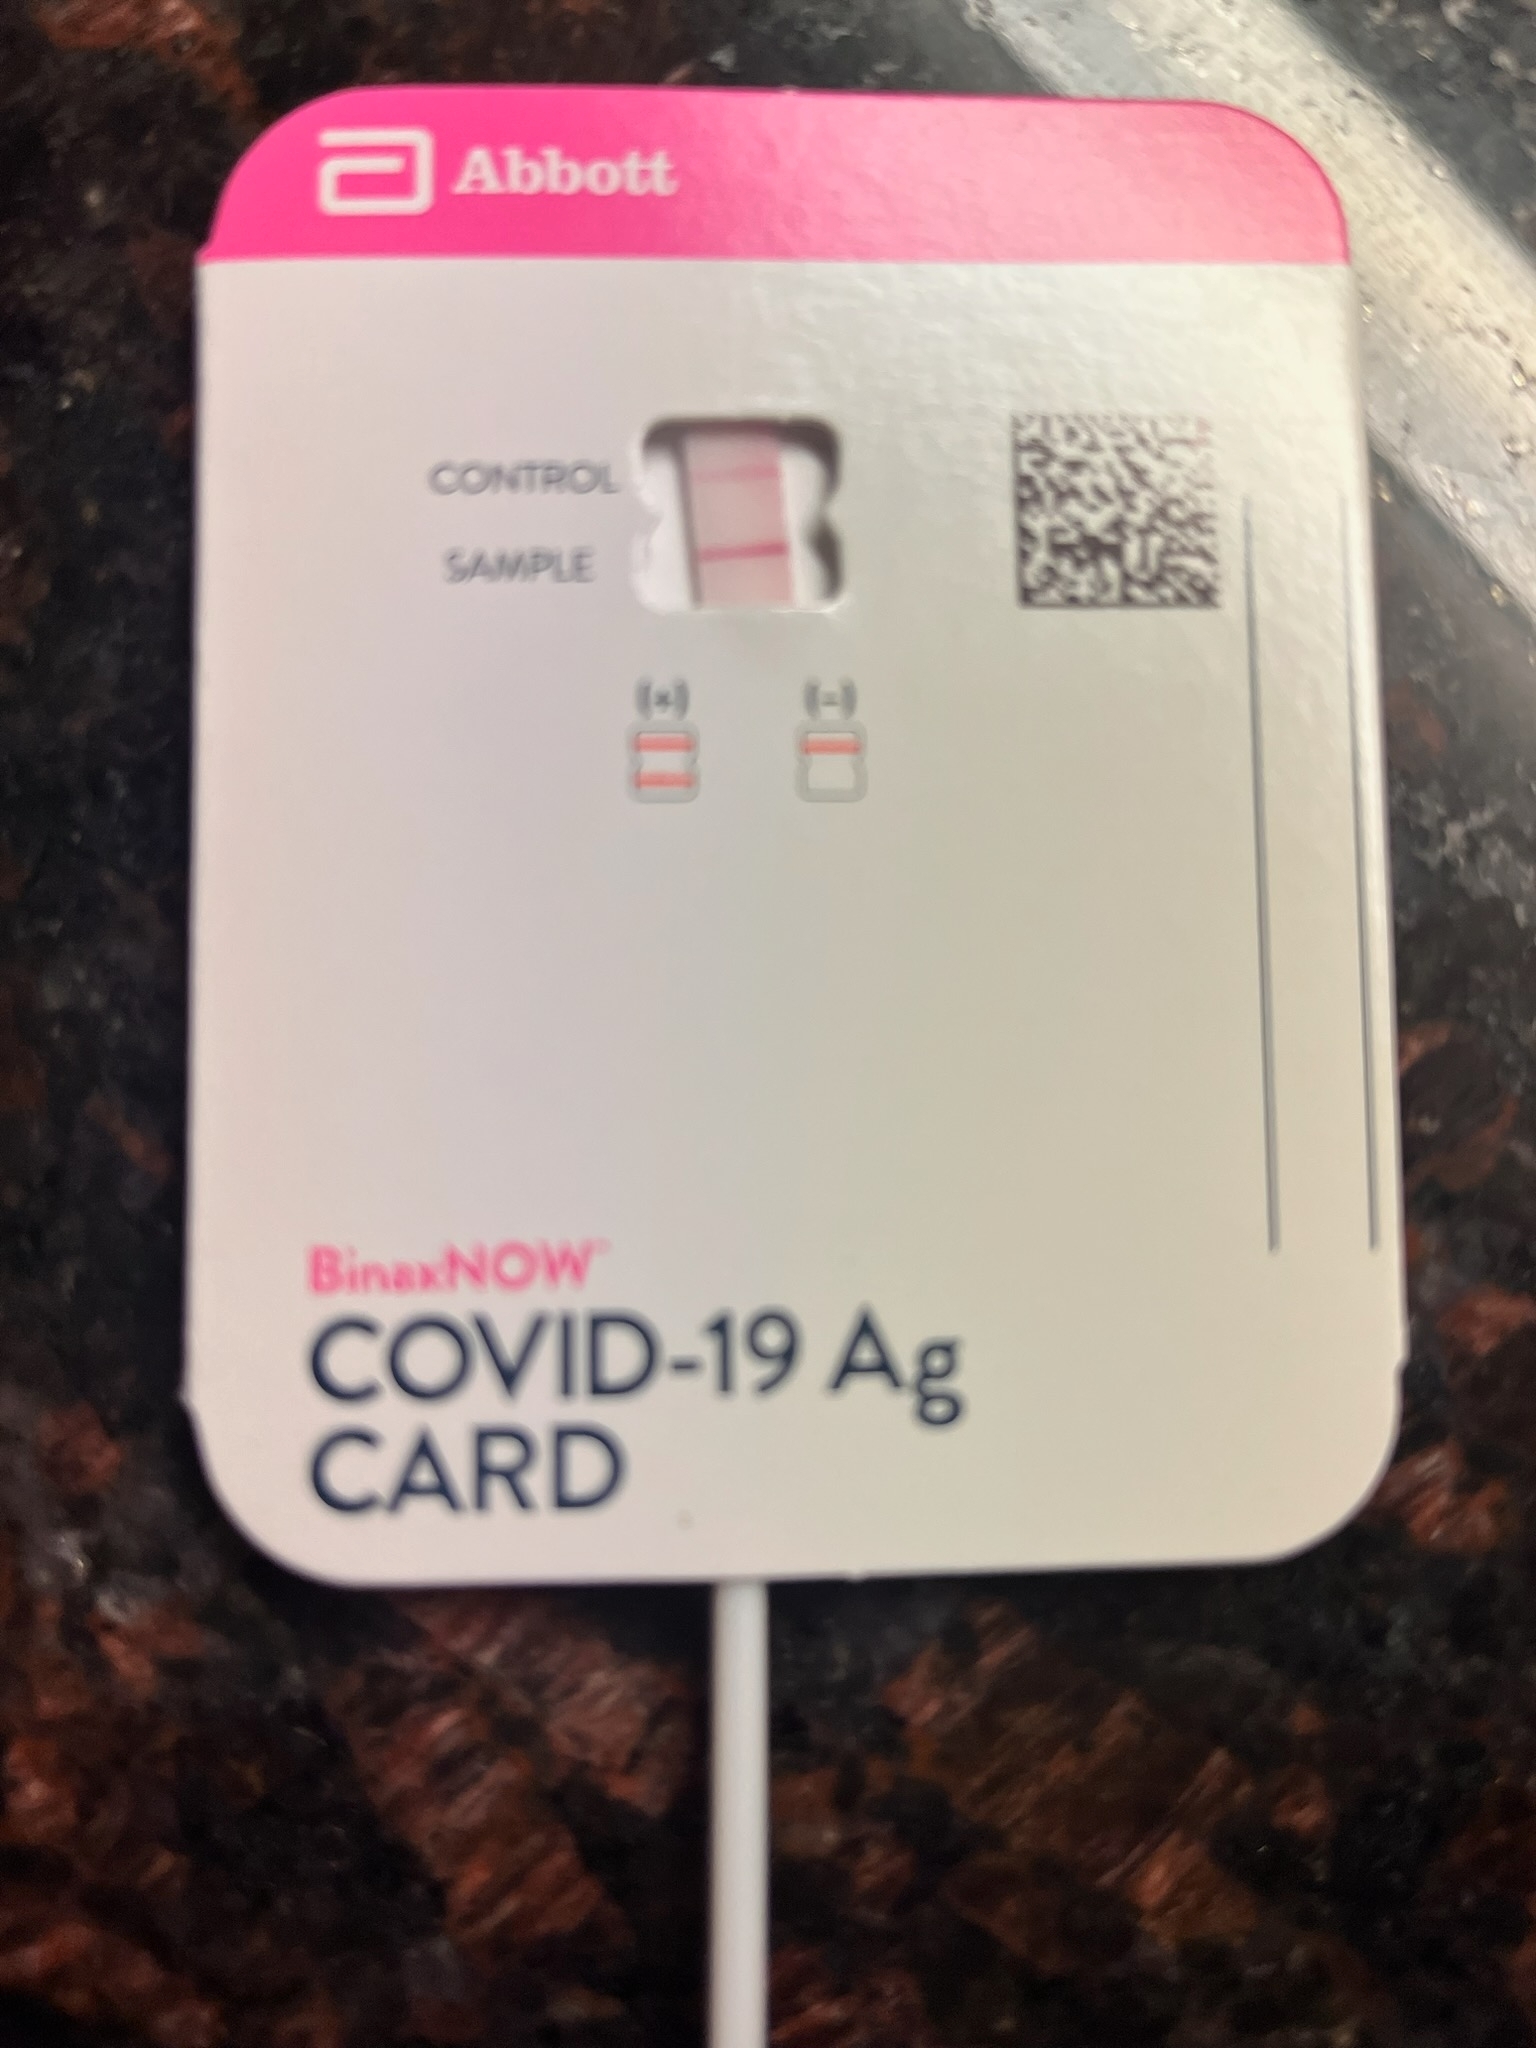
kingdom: Viruses
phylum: Pisuviricota
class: Pisoniviricetes
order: Nidovirales
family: Coronaviridae
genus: Betacoronavirus
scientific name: Betacoronavirus Severe acute respiratory syndrome-related coronavirus
